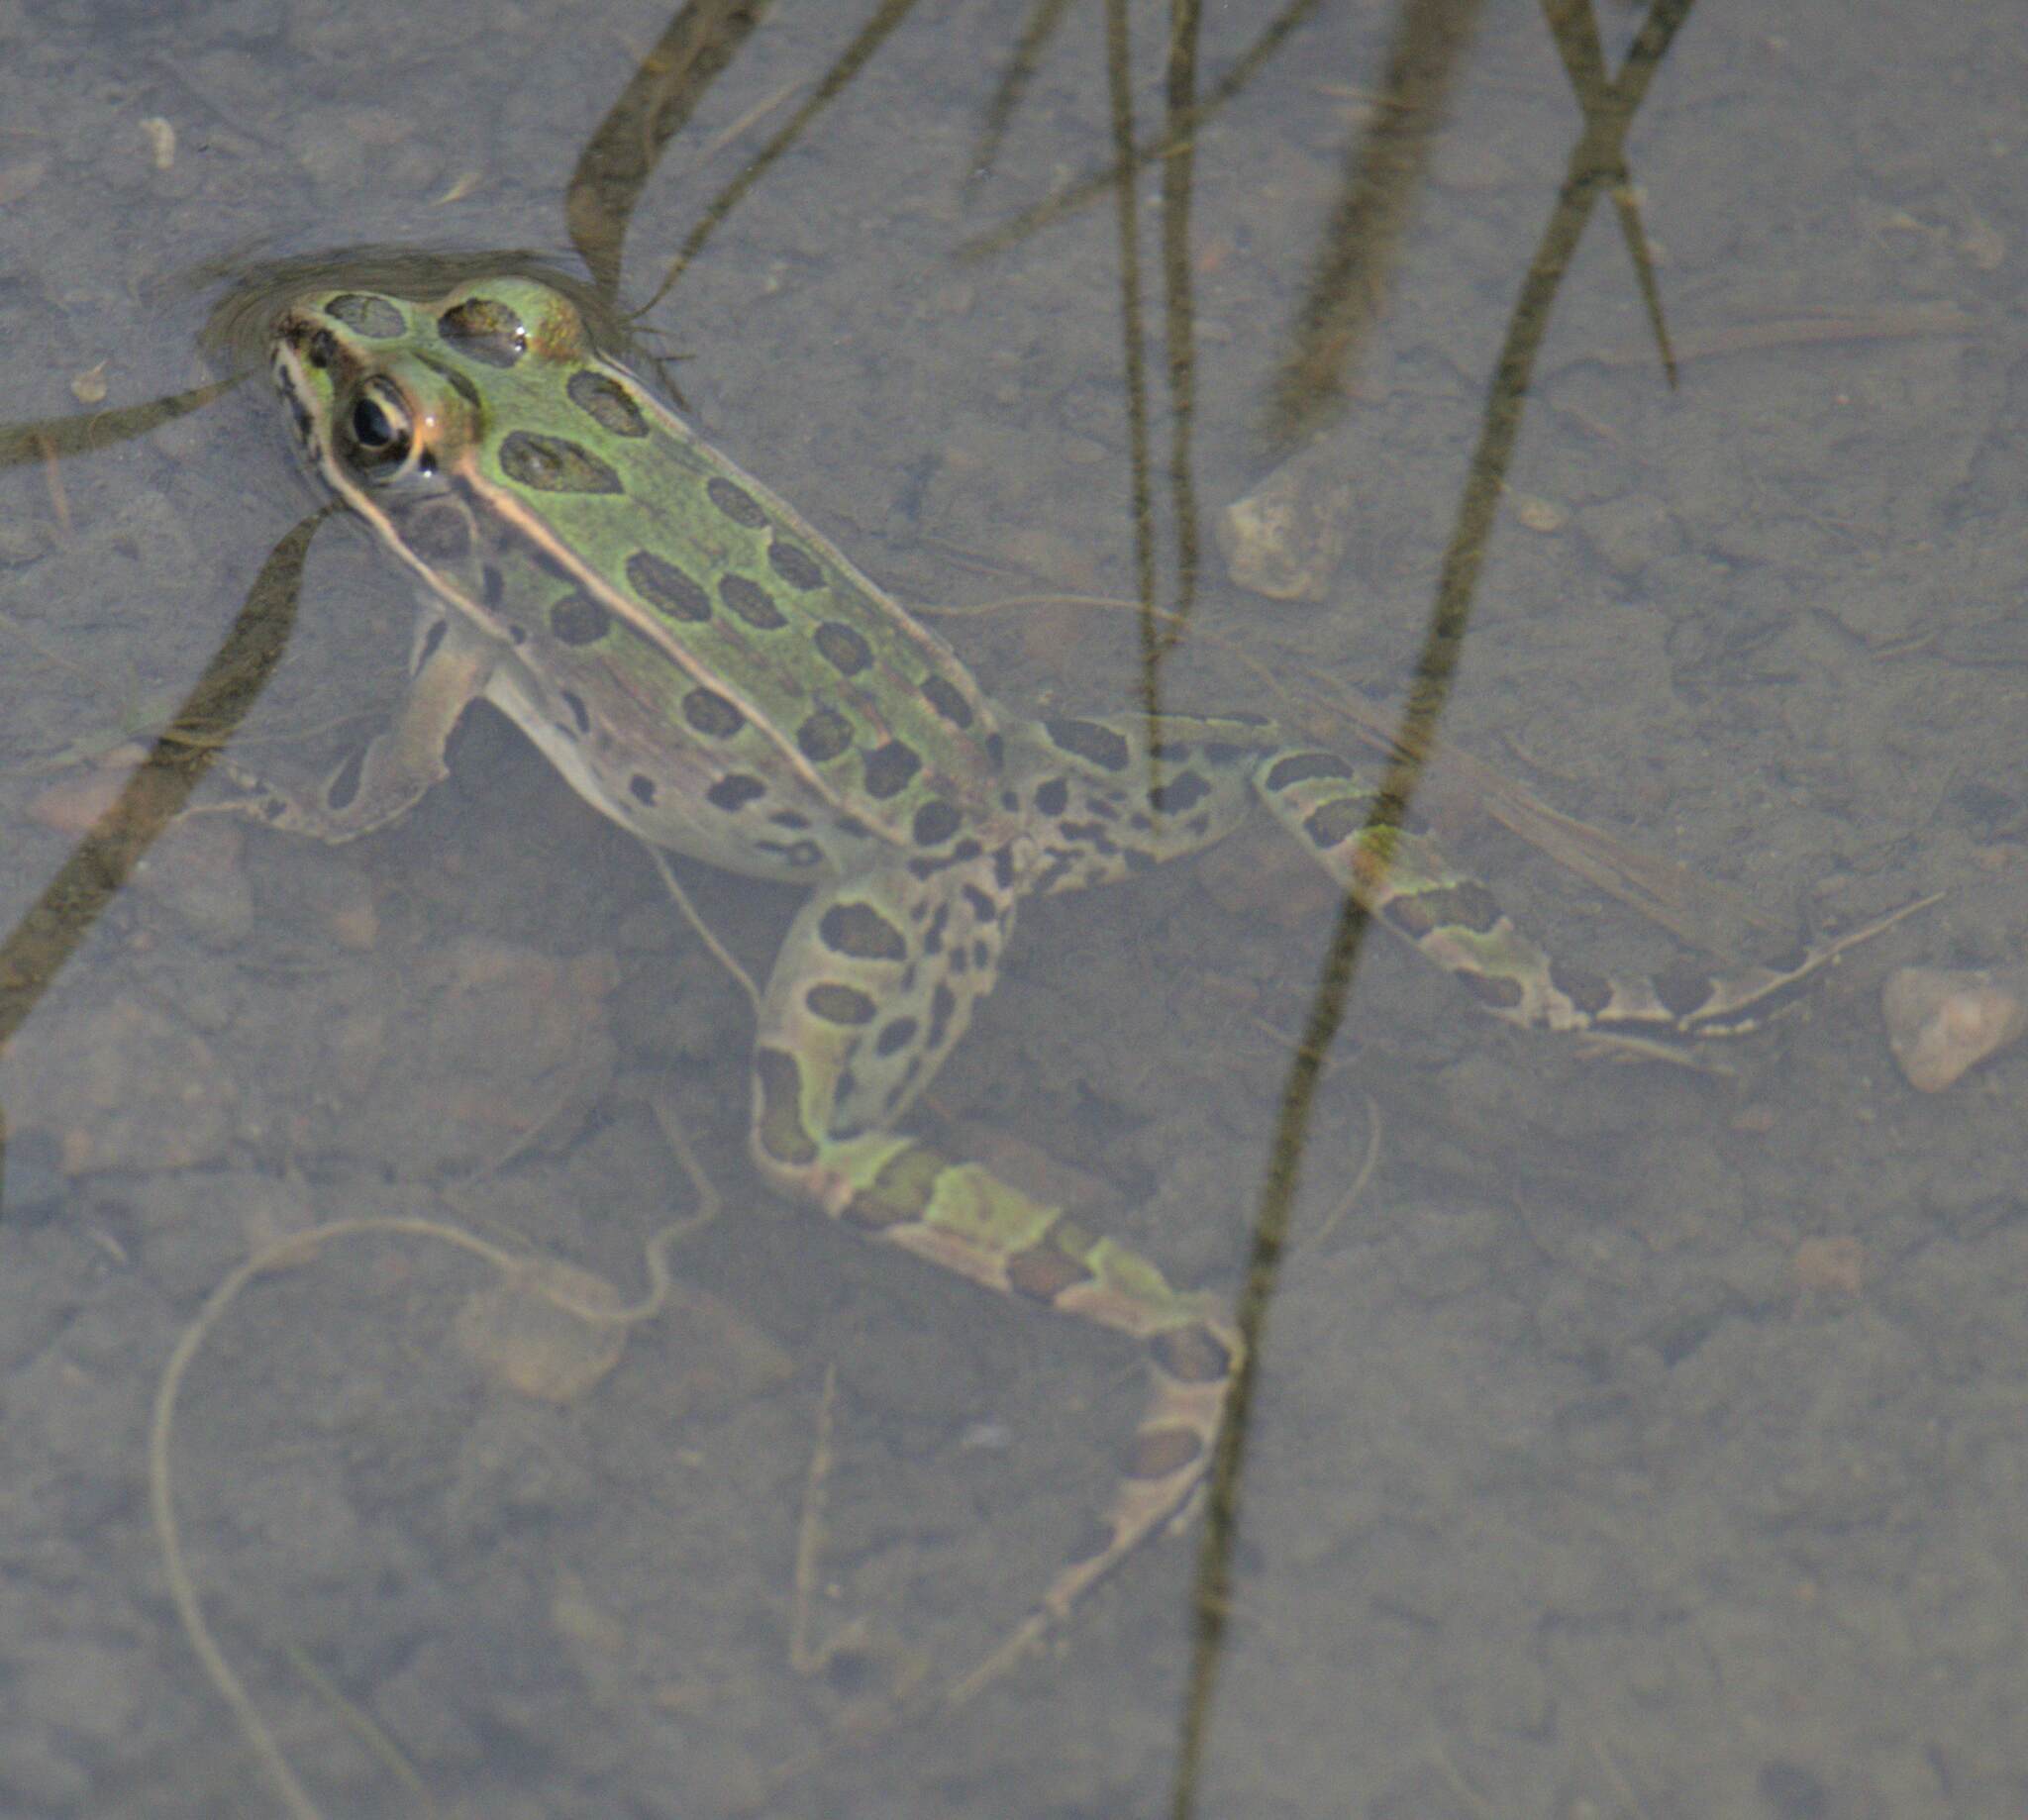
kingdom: Animalia
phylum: Chordata
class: Amphibia
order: Anura
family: Ranidae
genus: Lithobates
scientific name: Lithobates pipiens
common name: Northern leopard frog
